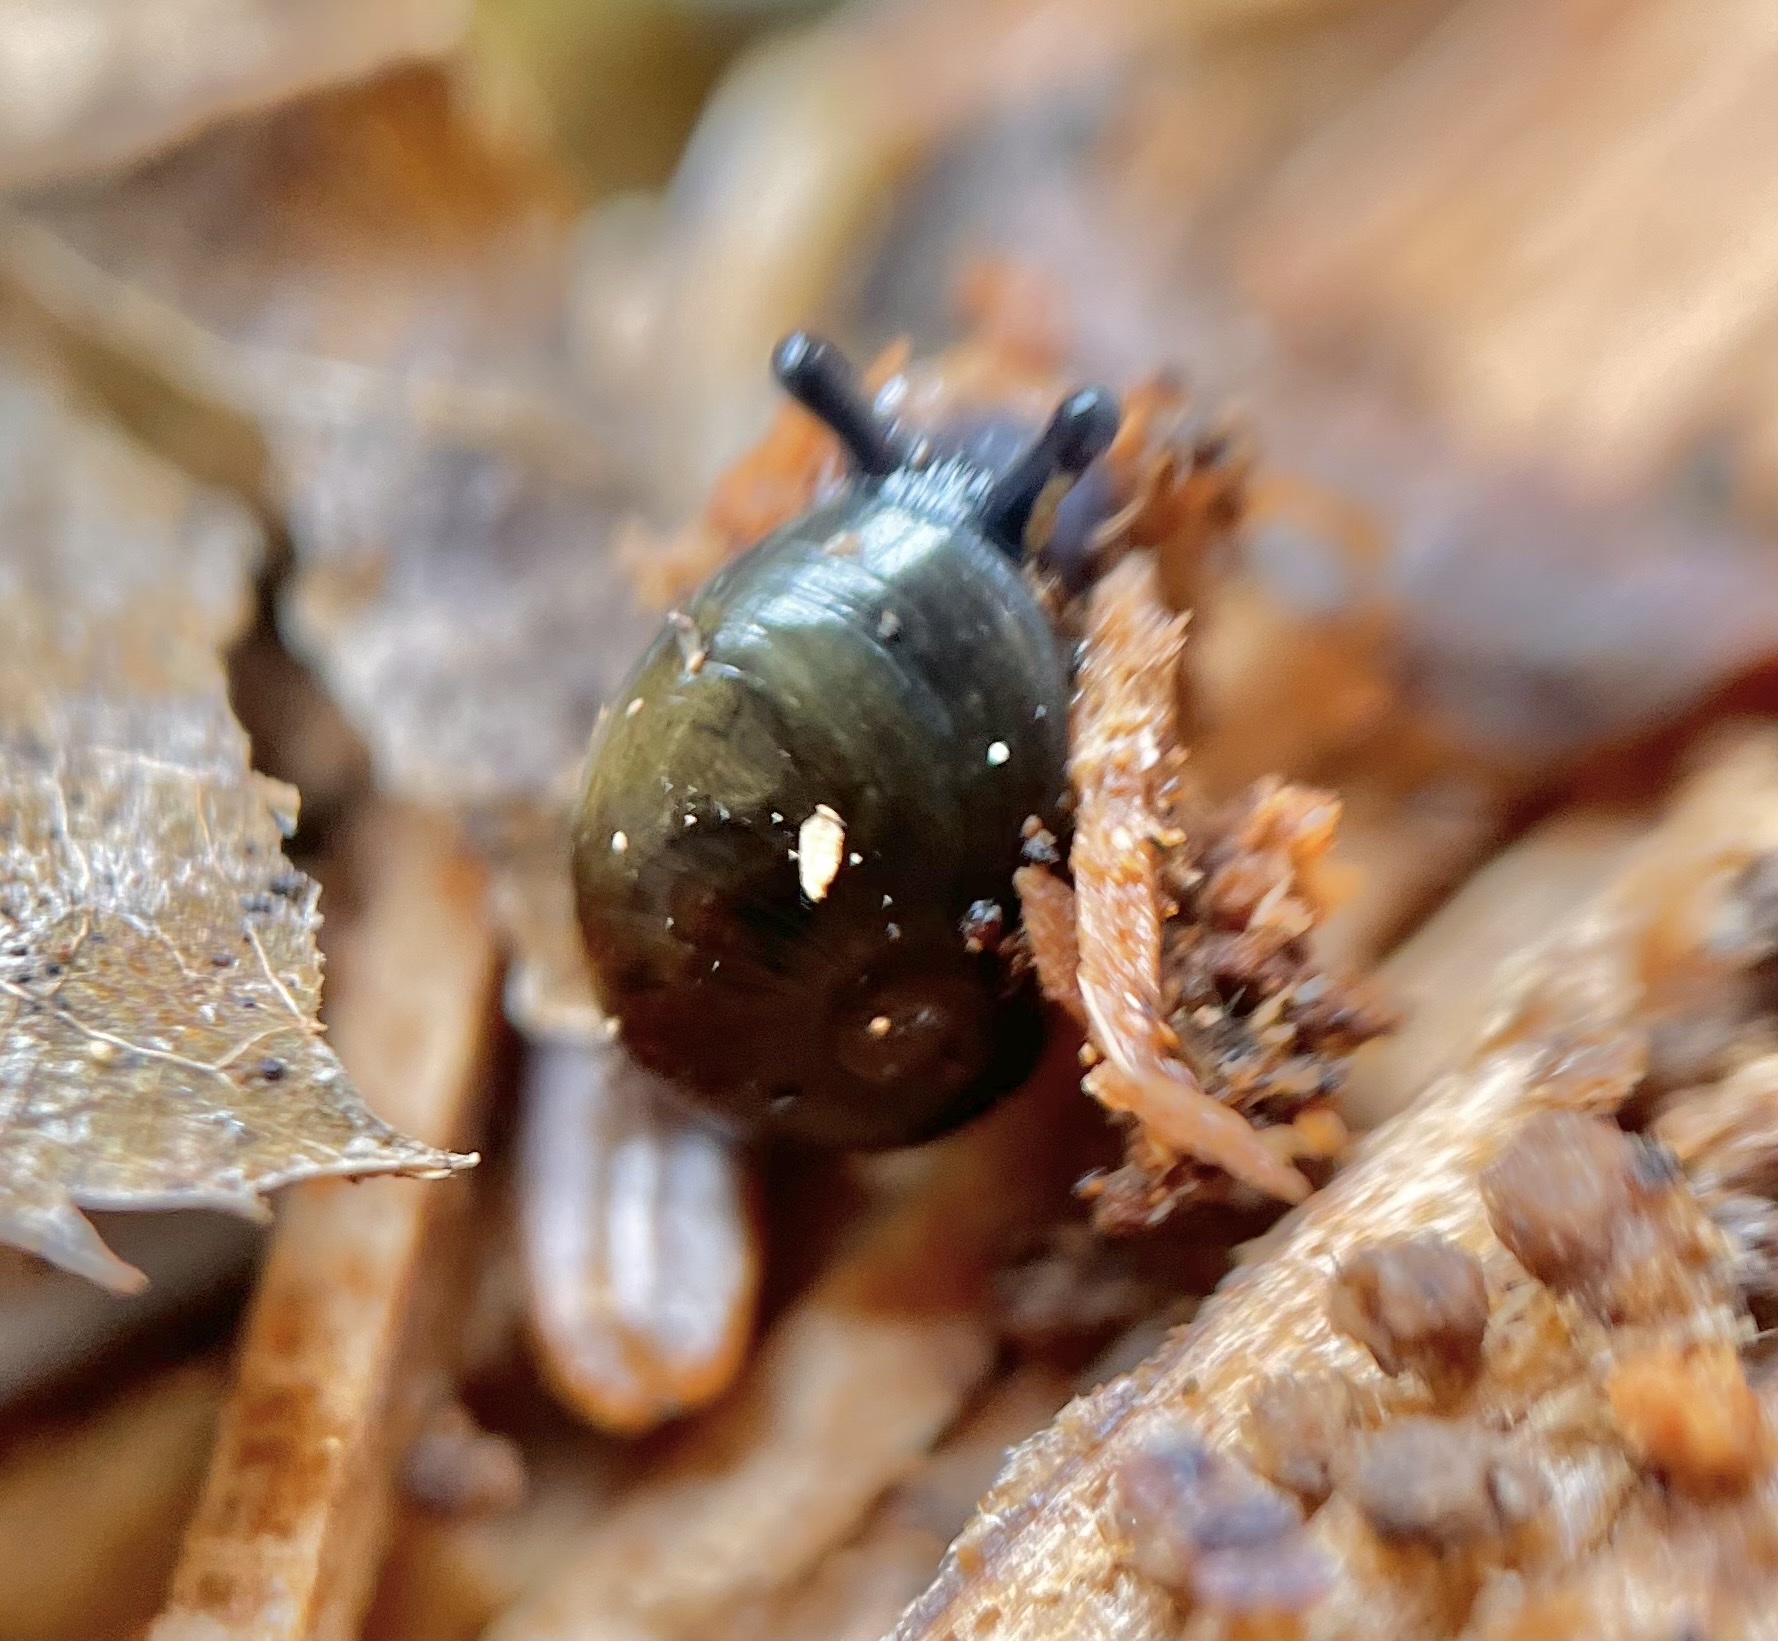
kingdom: Animalia
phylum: Mollusca
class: Gastropoda
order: Stylommatophora
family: Gastrodontidae
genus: Vitrinizonites
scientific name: Vitrinizonites latissimus
